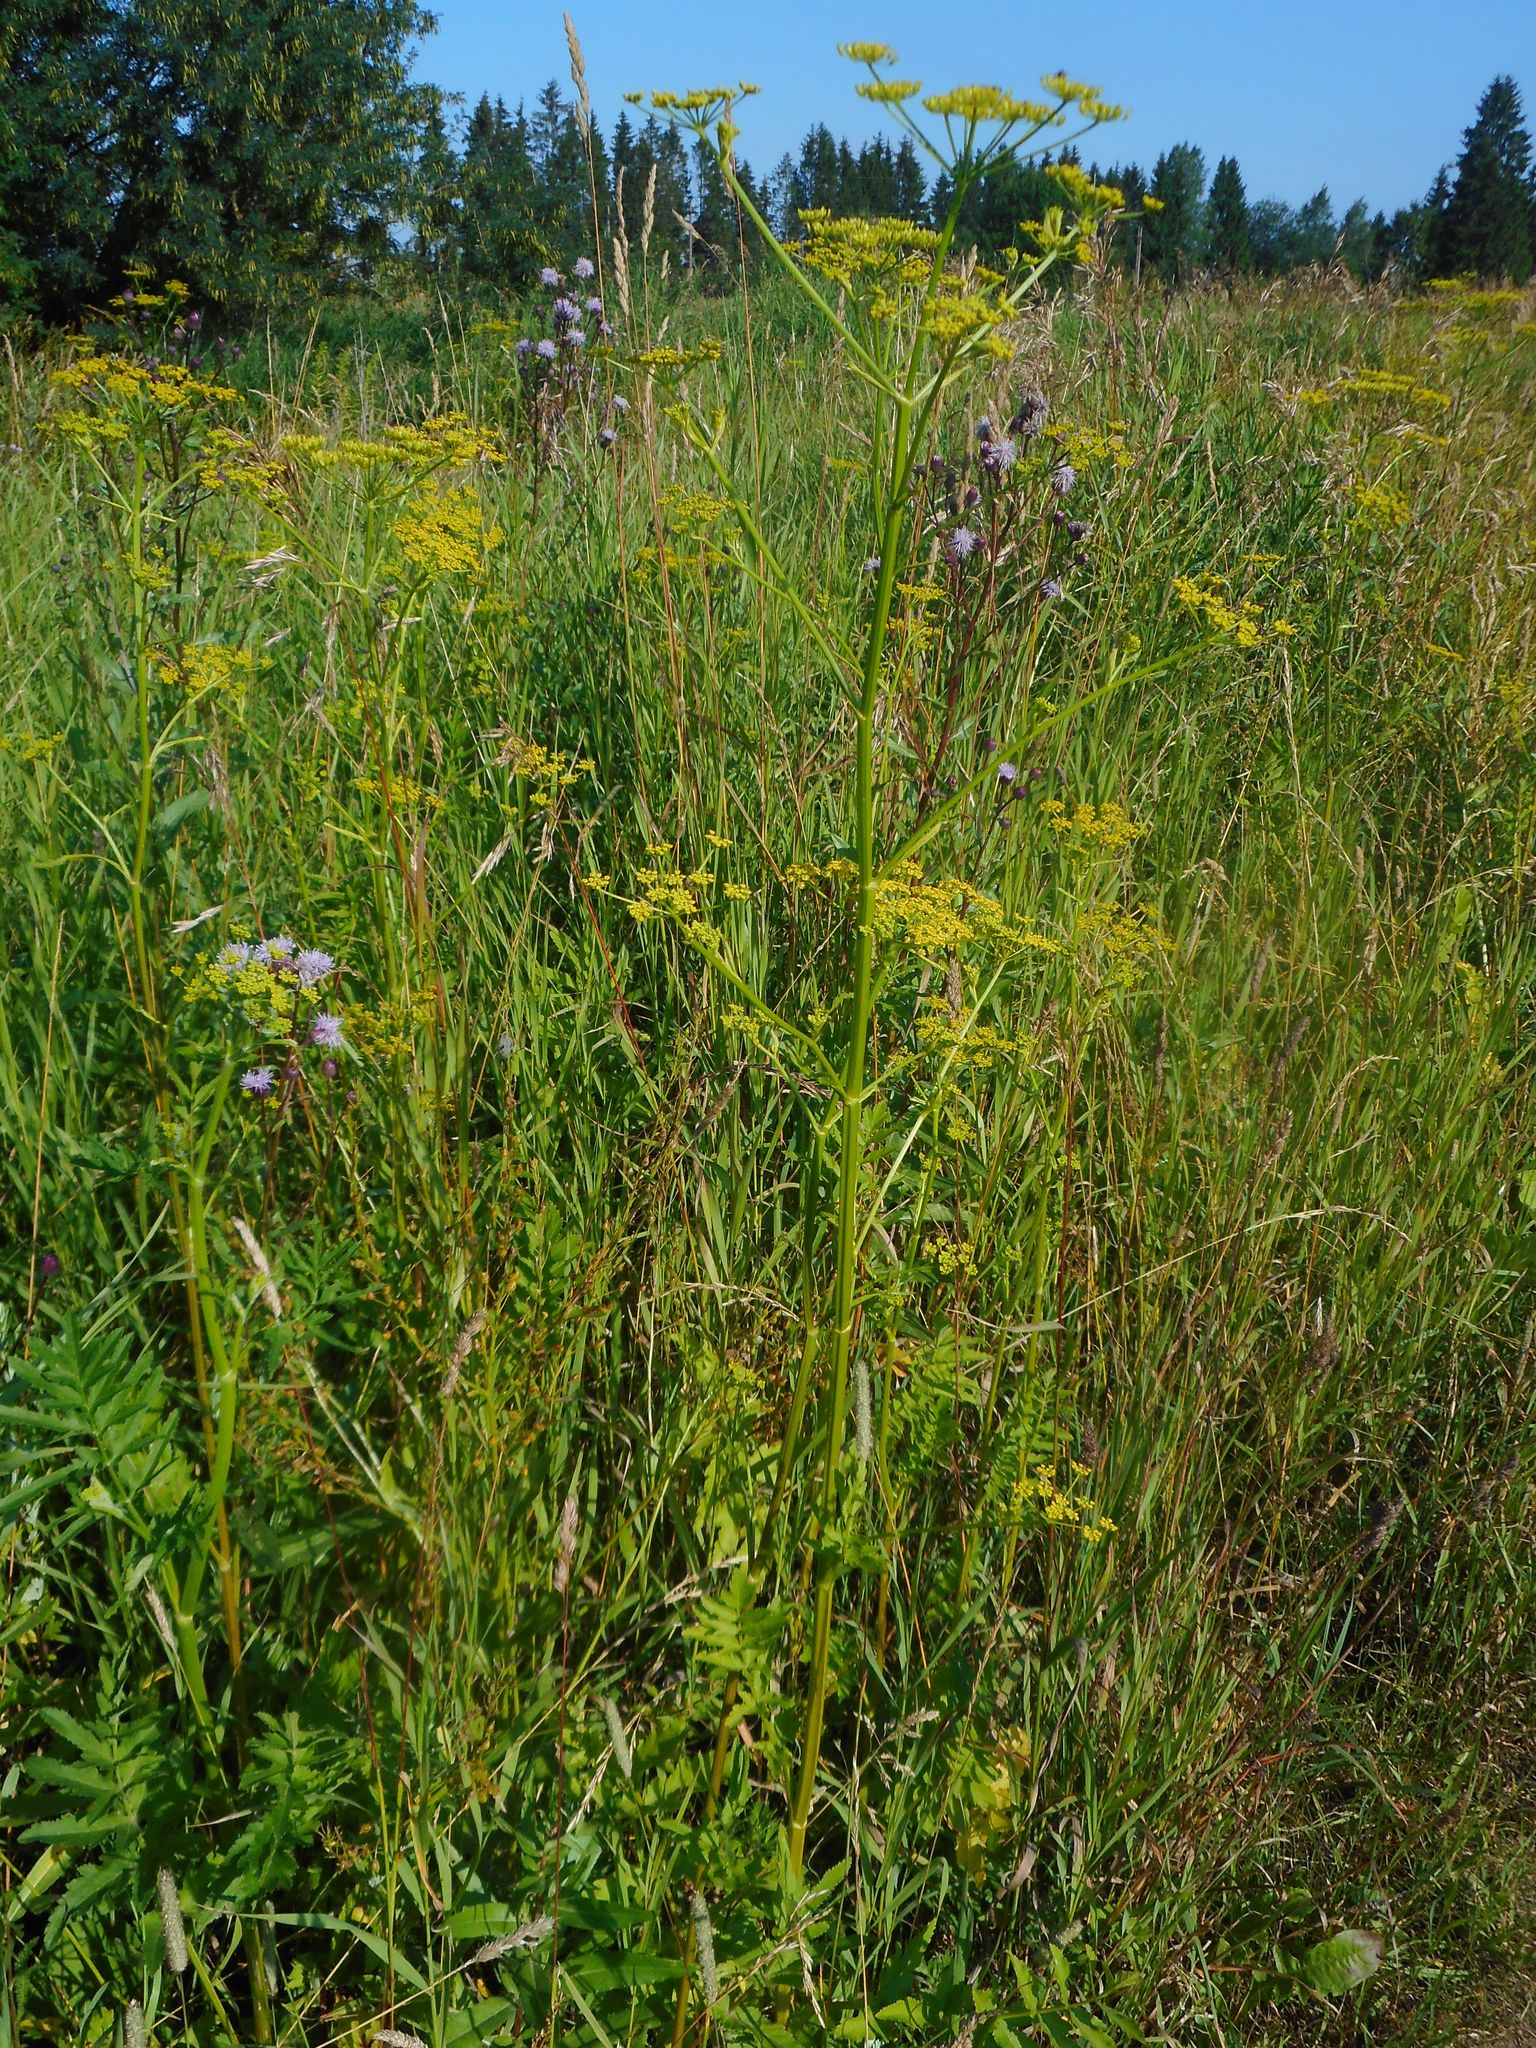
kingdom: Plantae
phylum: Tracheophyta
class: Magnoliopsida
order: Apiales
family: Apiaceae
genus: Pastinaca
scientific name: Pastinaca sativa
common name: Wild parsnip
